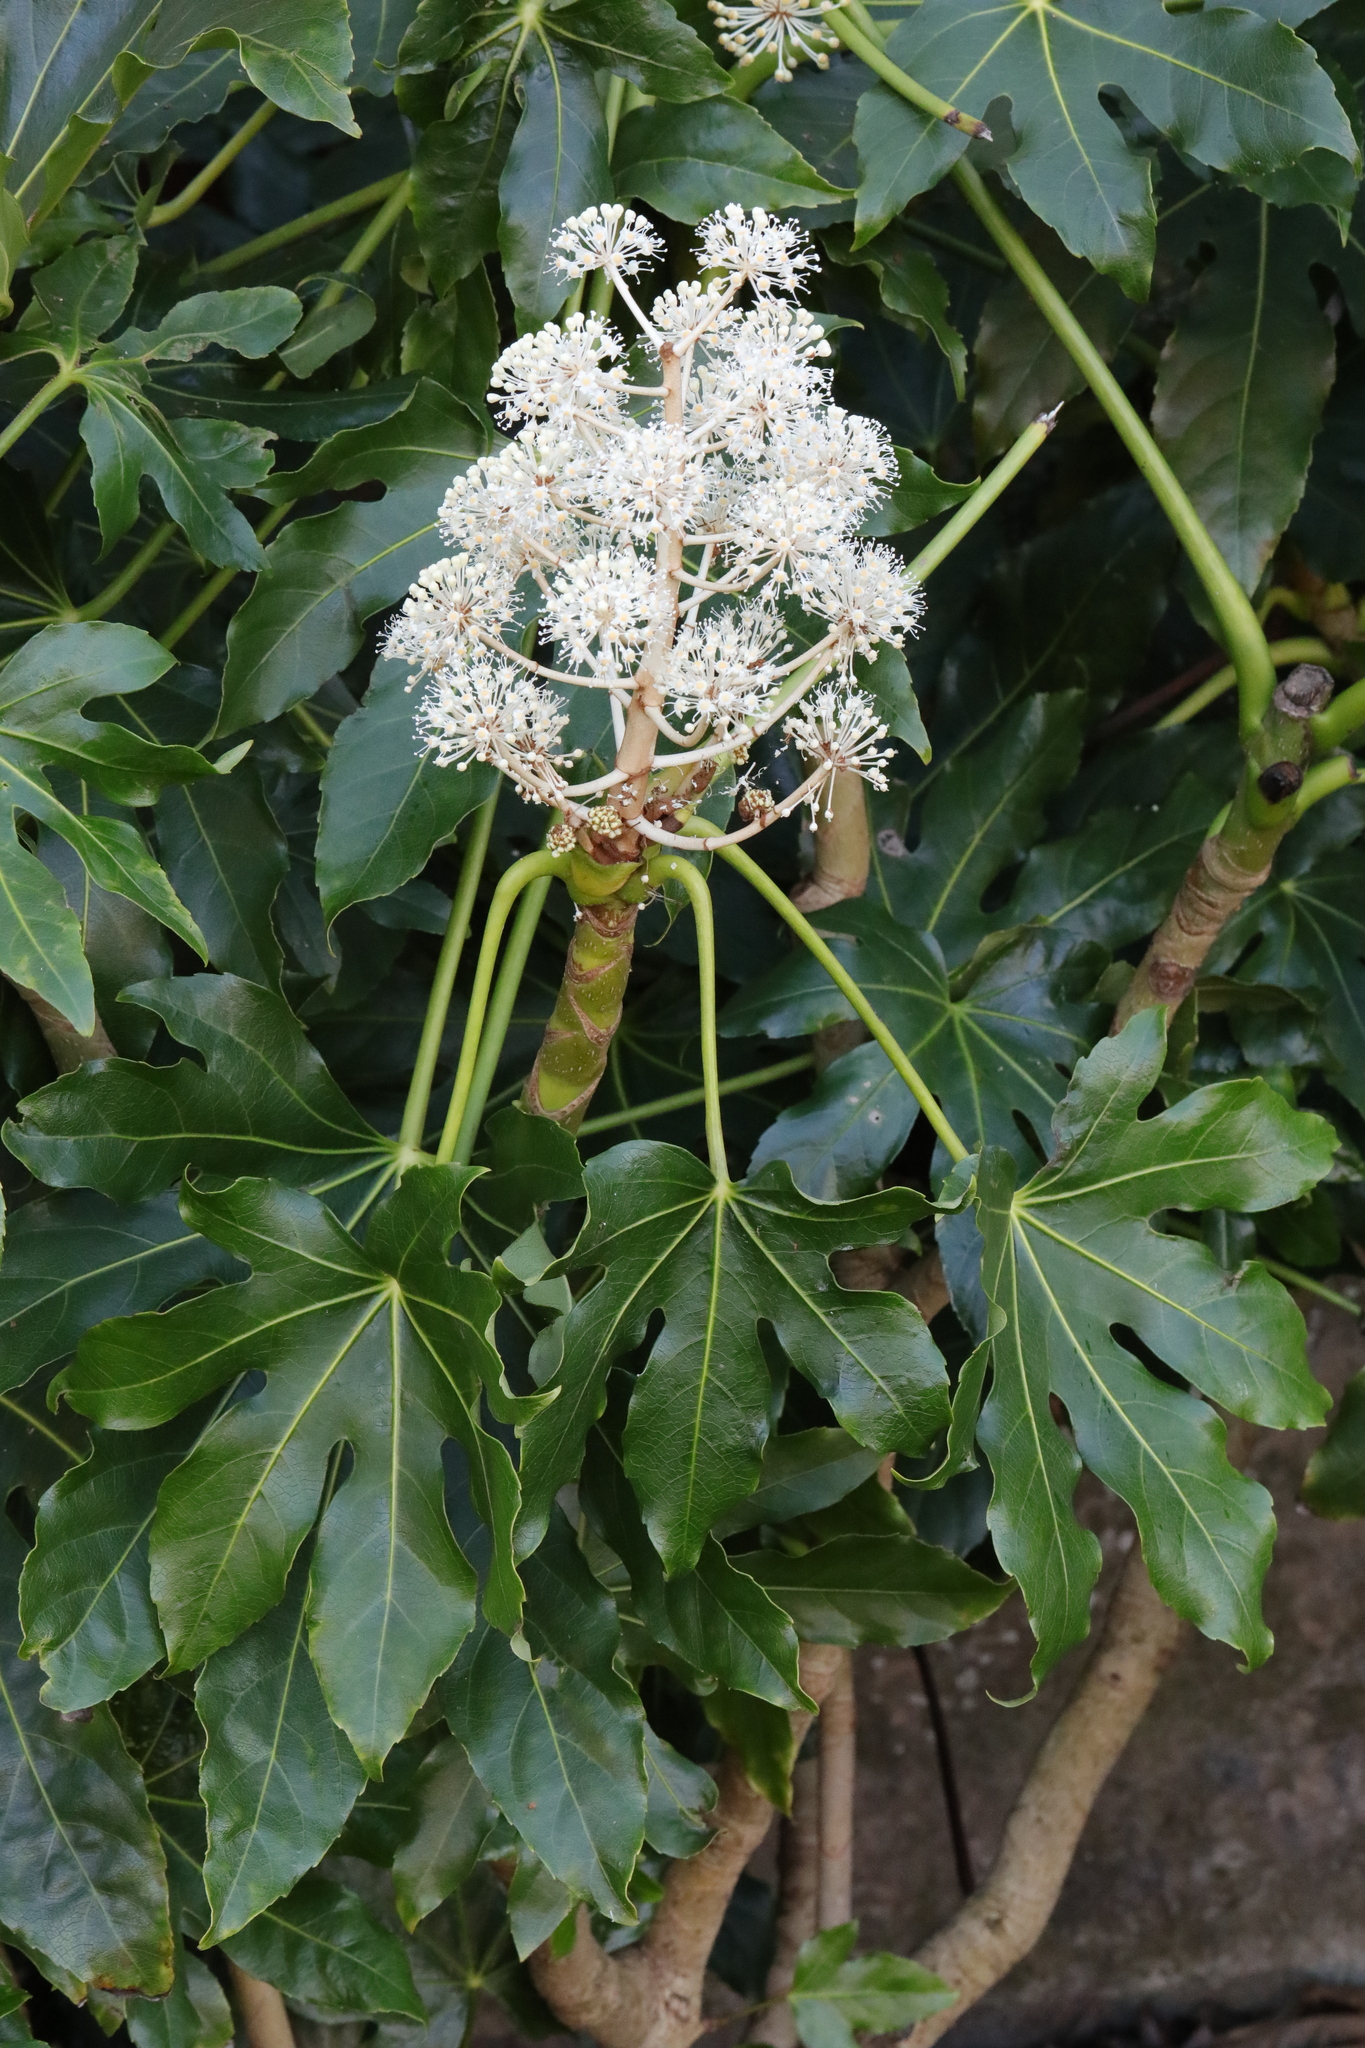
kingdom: Plantae
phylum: Tracheophyta
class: Magnoliopsida
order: Apiales
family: Araliaceae
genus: Fatsia
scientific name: Fatsia japonica
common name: Fatsia
